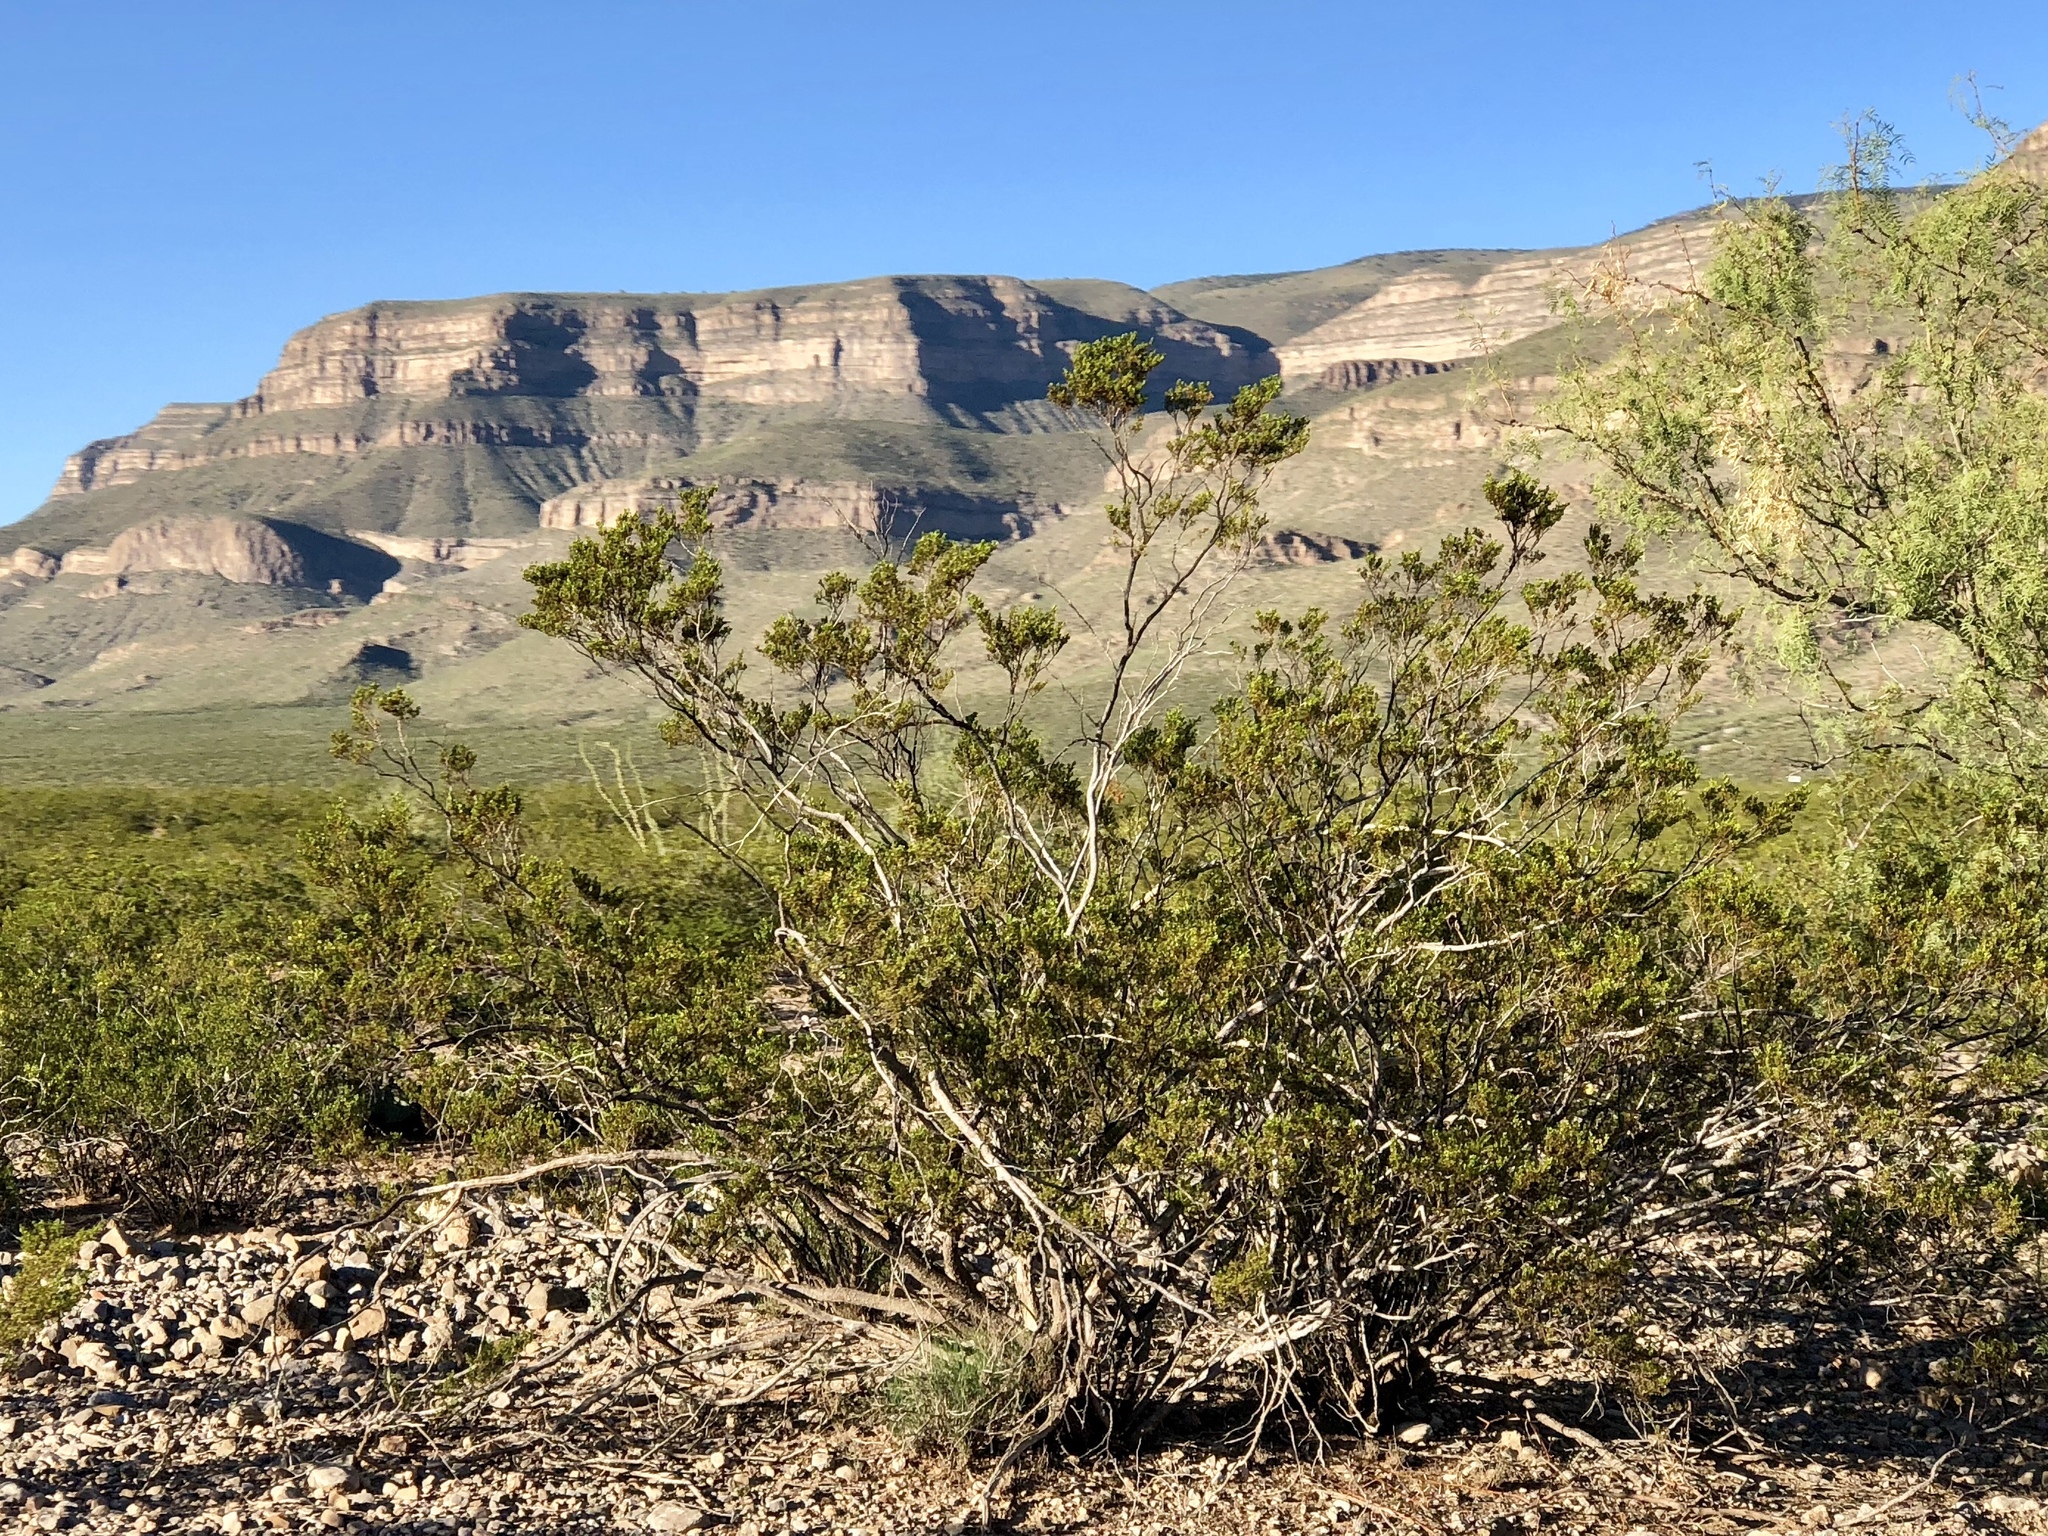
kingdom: Plantae
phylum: Tracheophyta
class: Magnoliopsida
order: Zygophyllales
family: Zygophyllaceae
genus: Larrea
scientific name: Larrea tridentata
